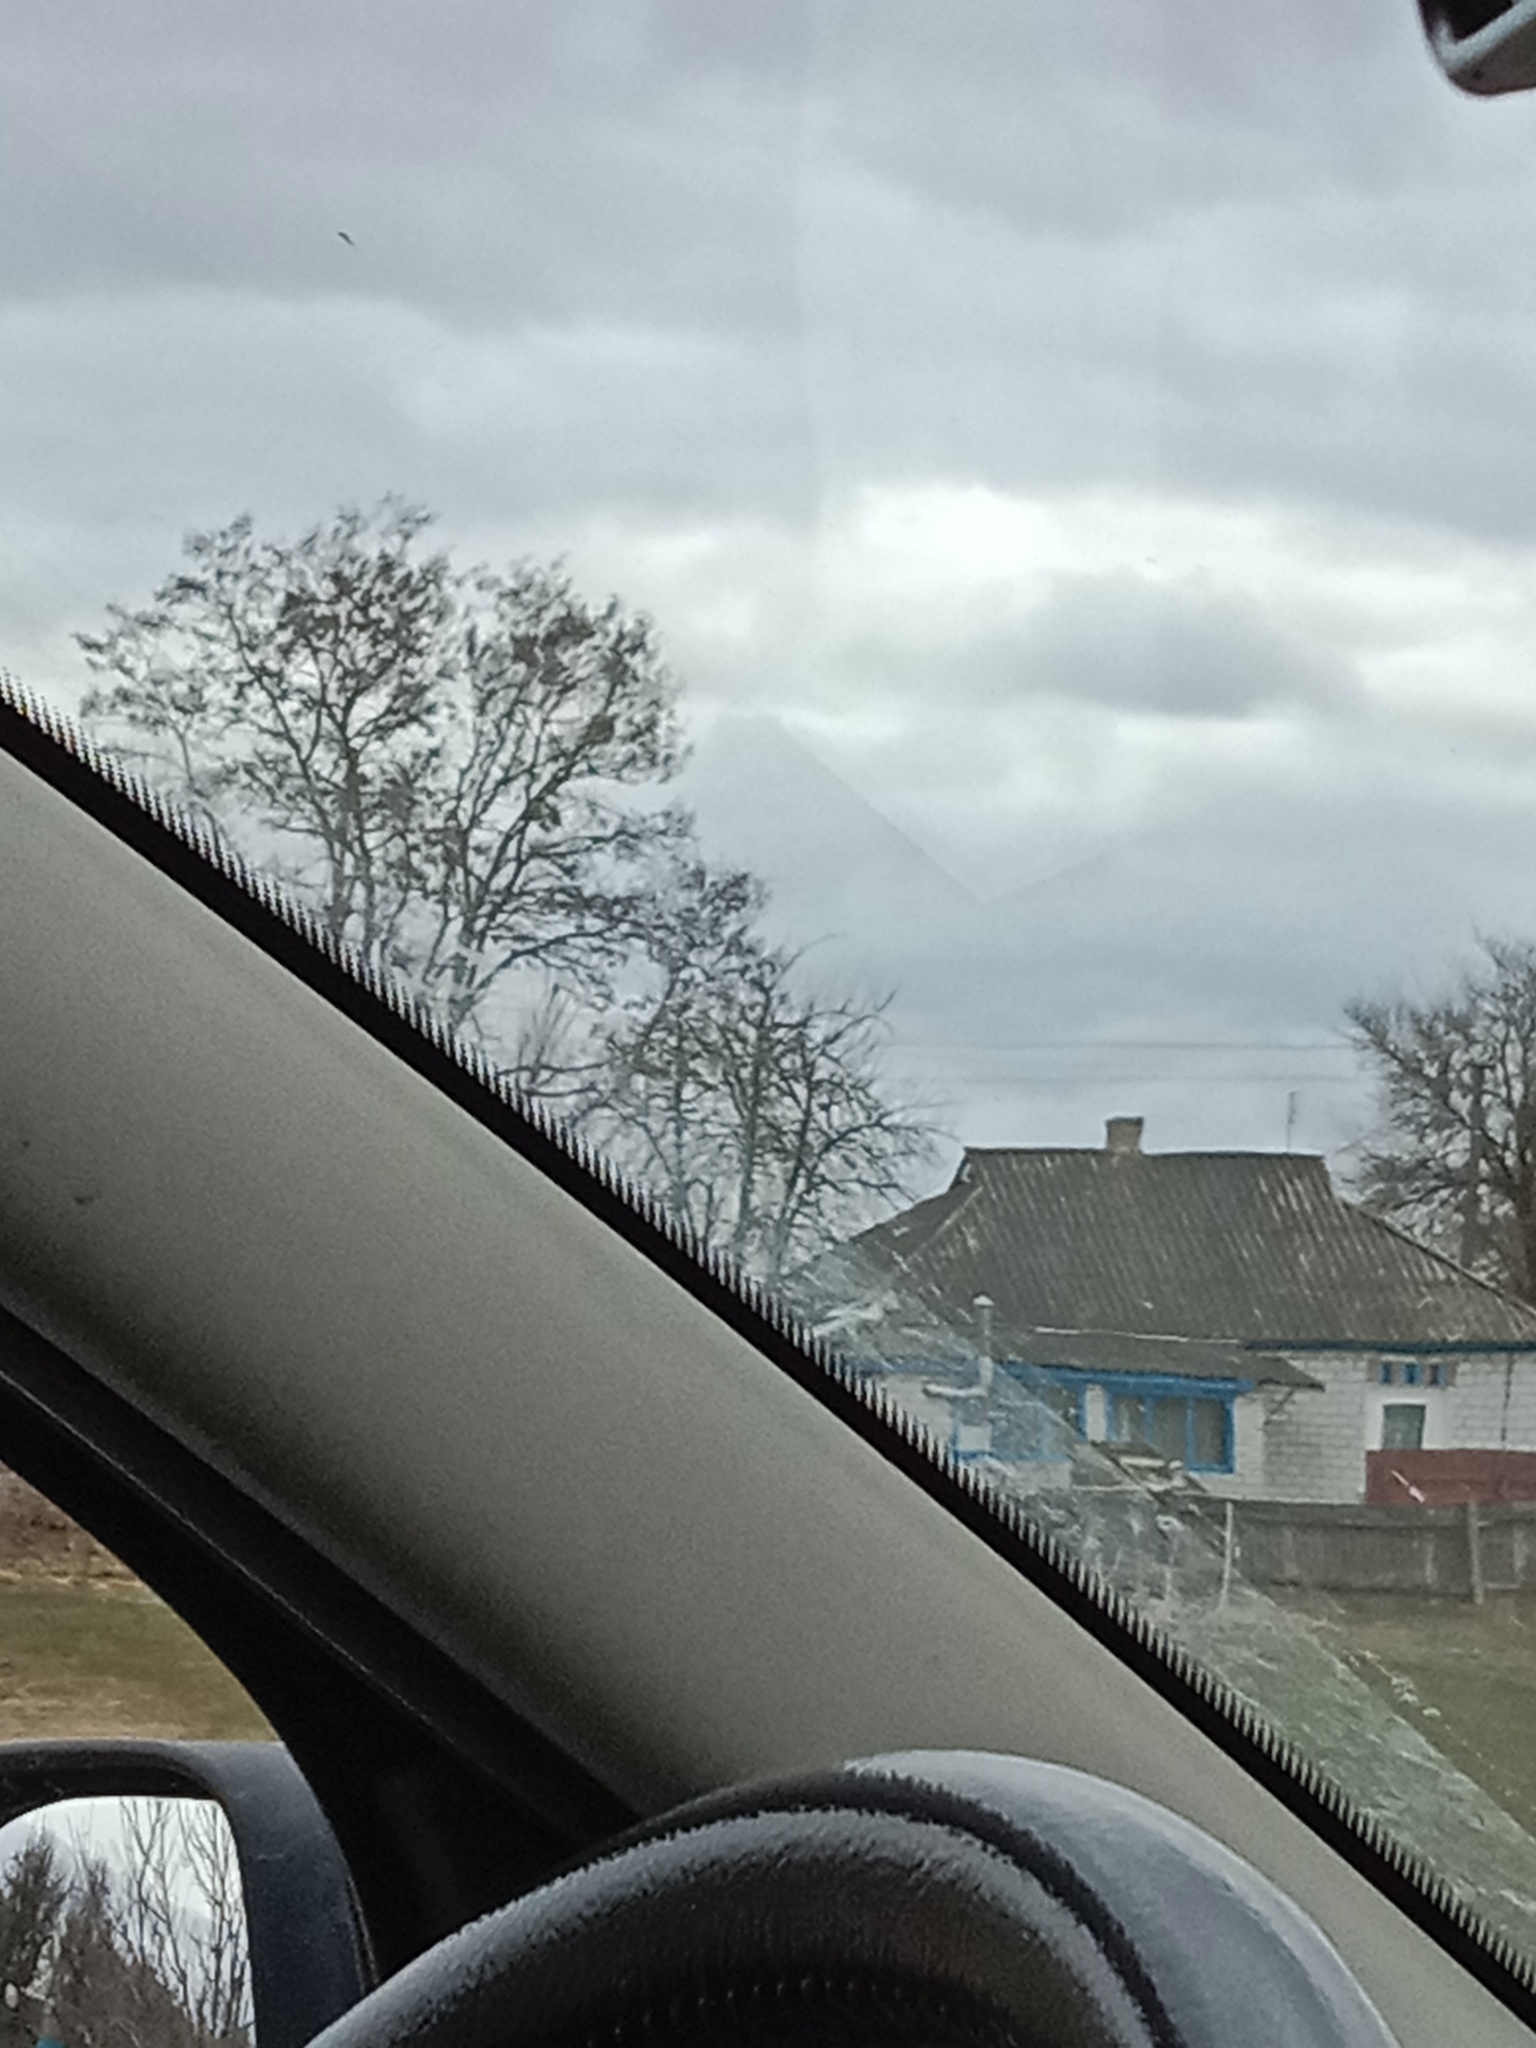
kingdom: Plantae
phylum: Tracheophyta
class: Magnoliopsida
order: Santalales
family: Viscaceae
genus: Viscum
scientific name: Viscum album
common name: Mistletoe
